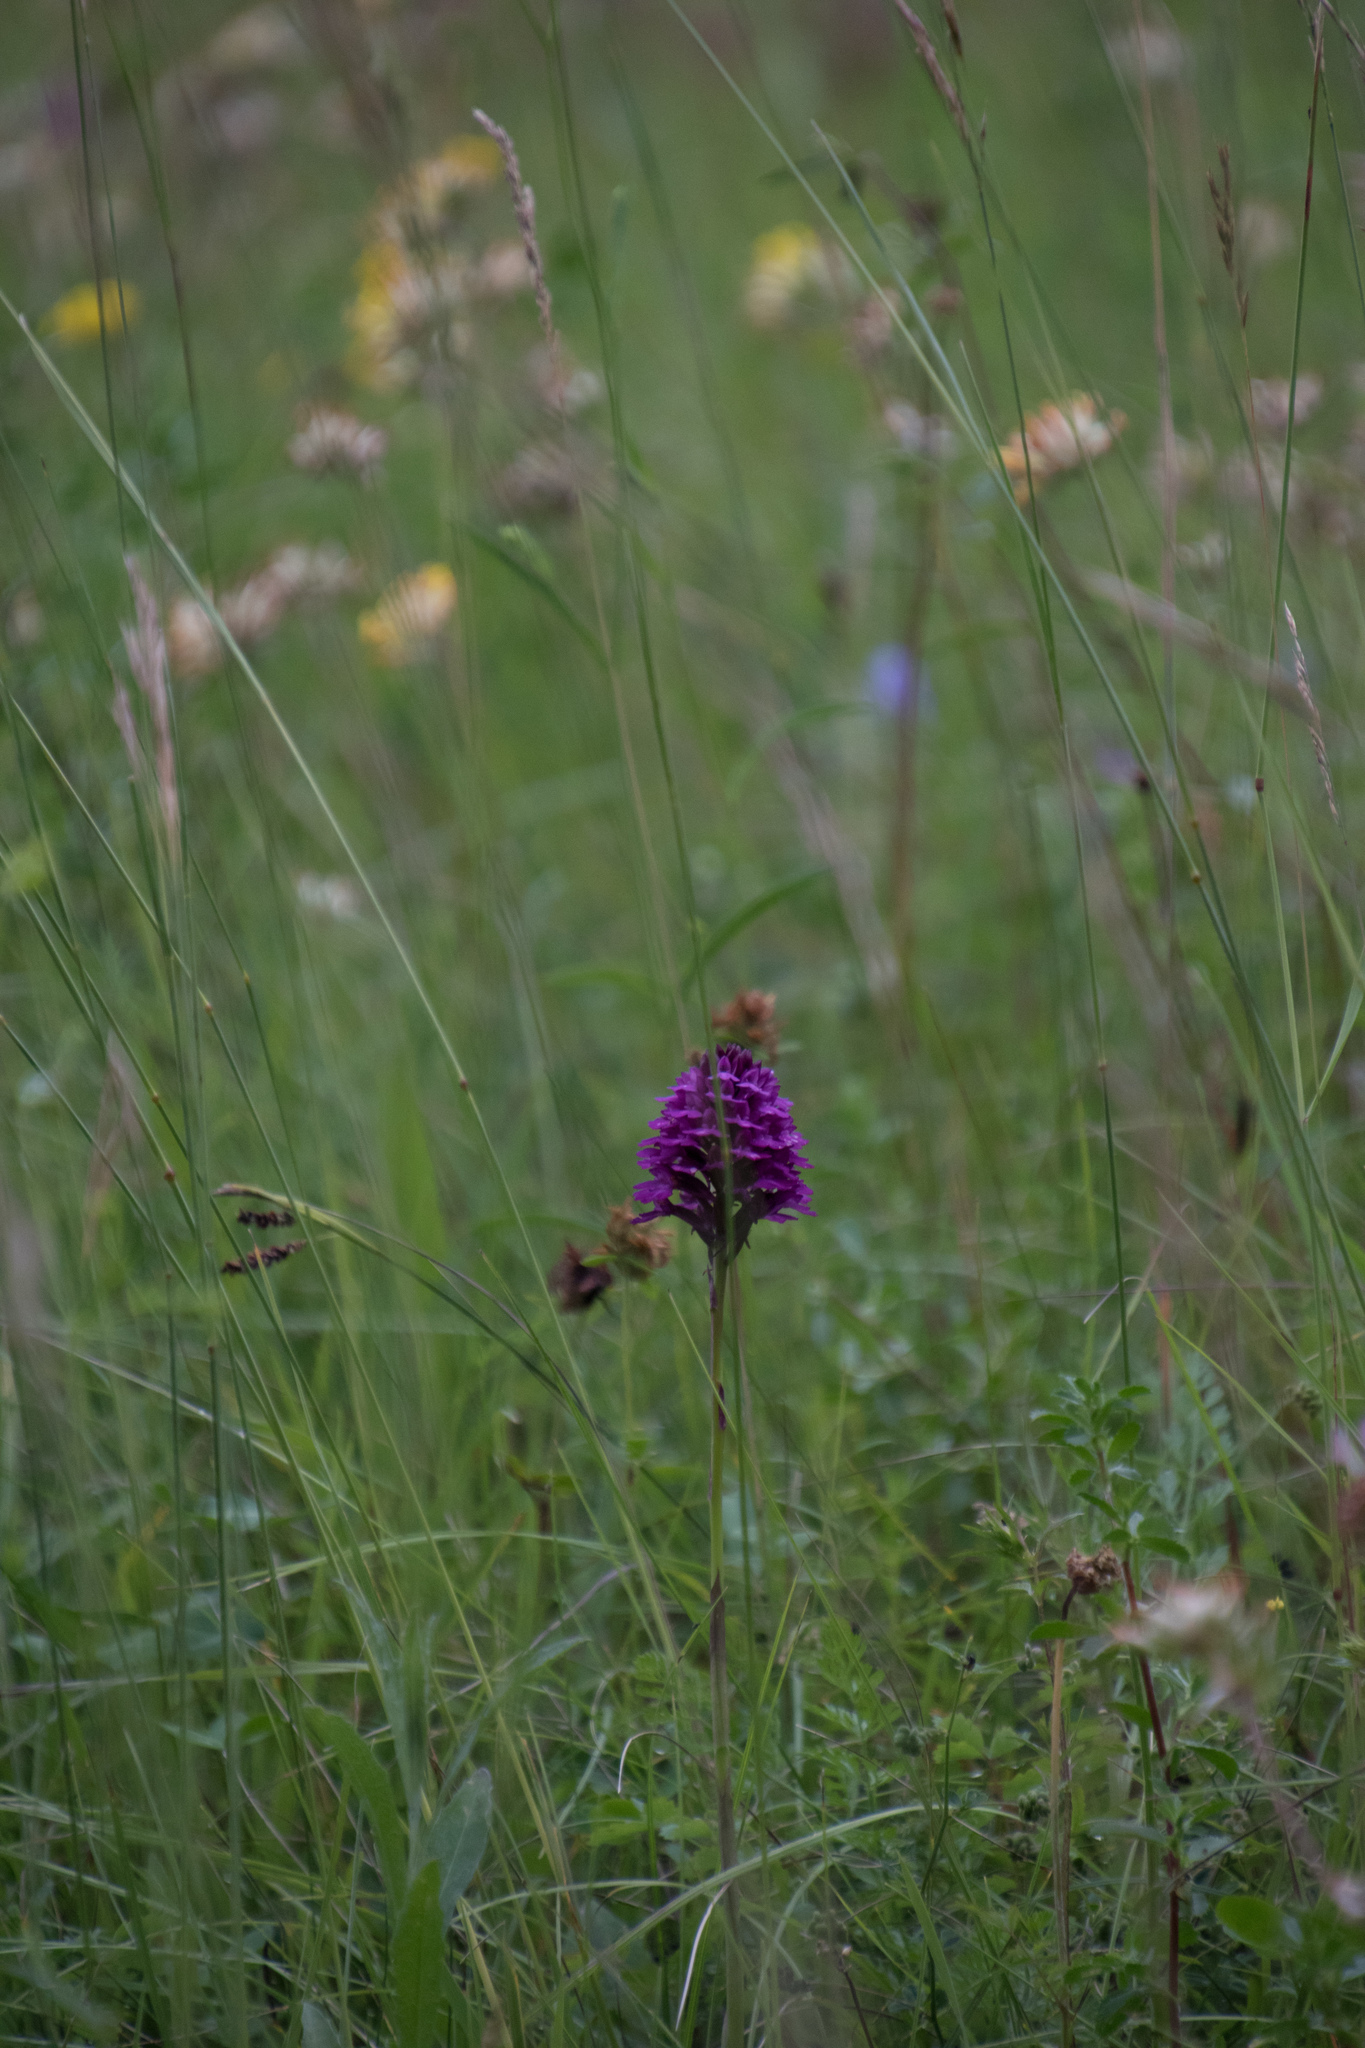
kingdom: Plantae
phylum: Tracheophyta
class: Liliopsida
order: Asparagales
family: Orchidaceae
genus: Anacamptis
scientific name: Anacamptis pyramidalis
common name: Pyramidal orchid
